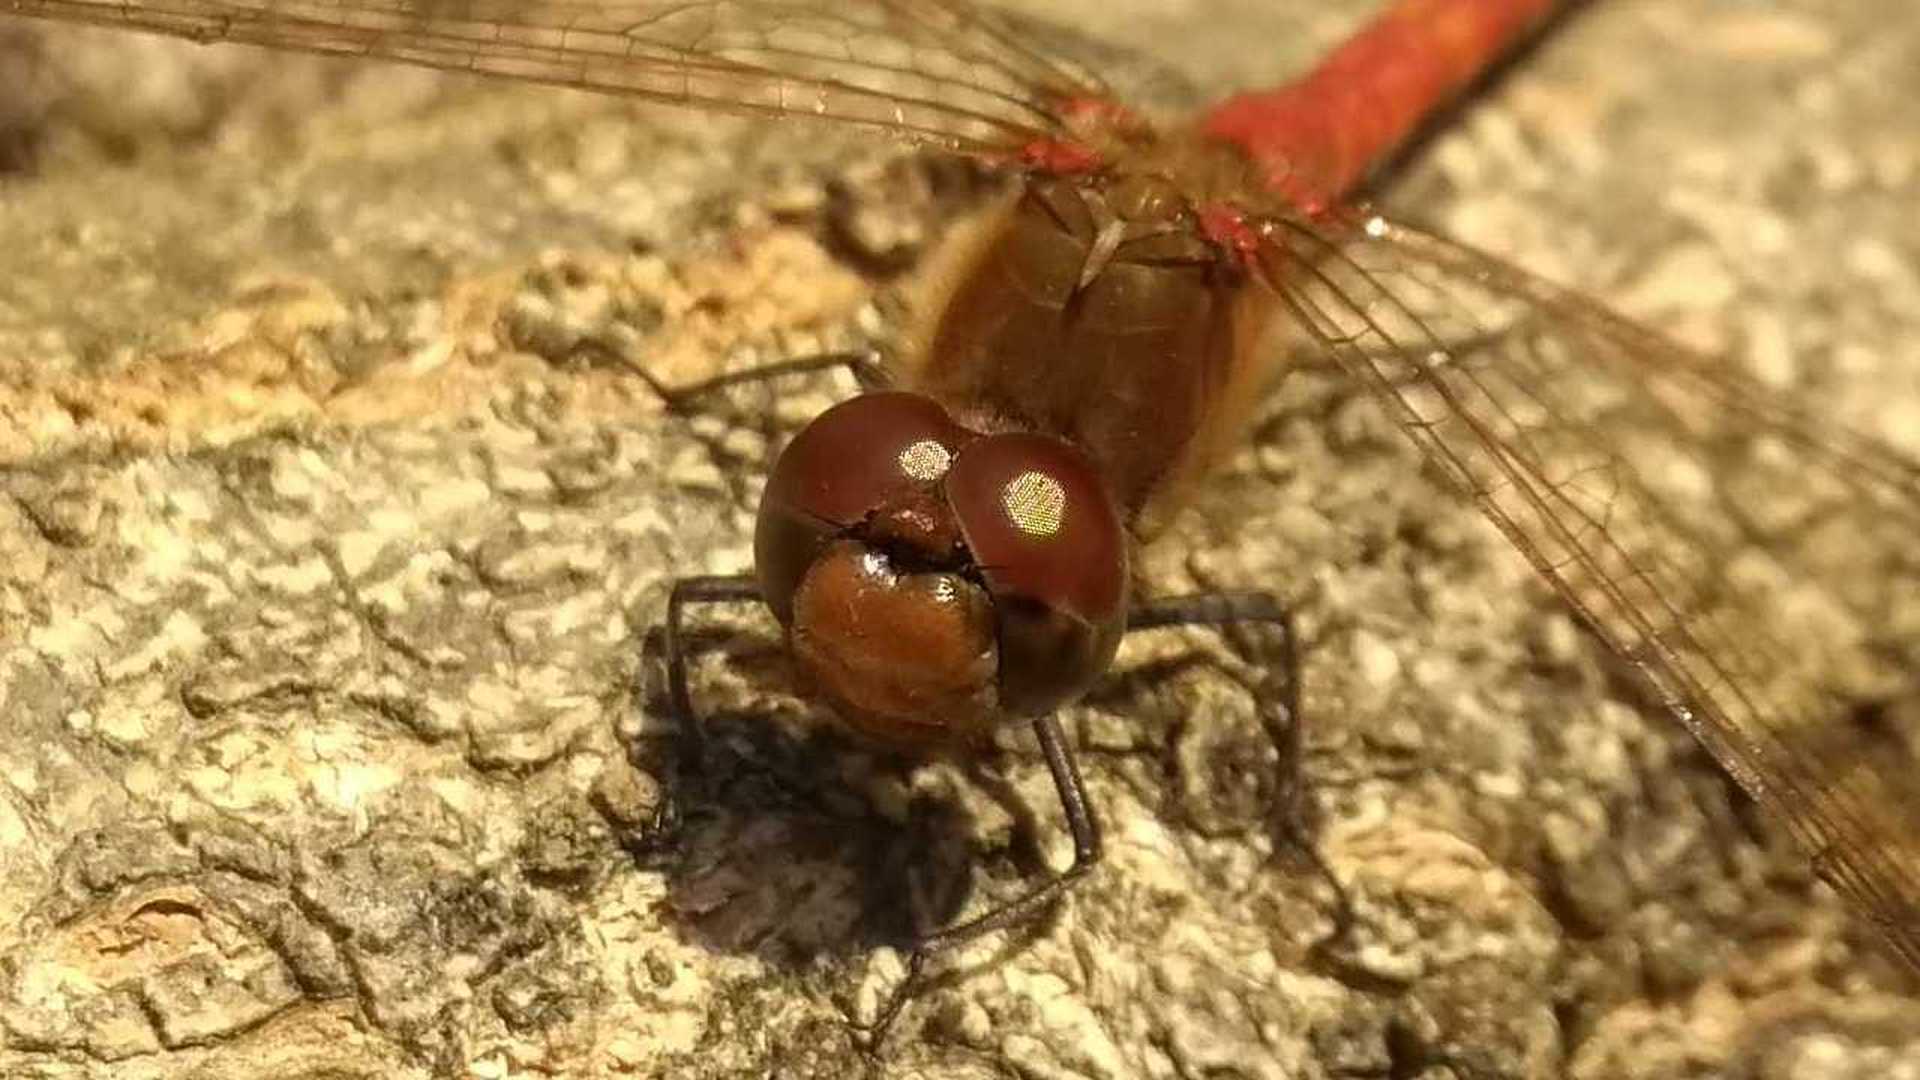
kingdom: Animalia
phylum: Arthropoda
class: Insecta
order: Odonata
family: Libellulidae
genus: Sympetrum
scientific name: Sympetrum striolatum
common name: Common darter
